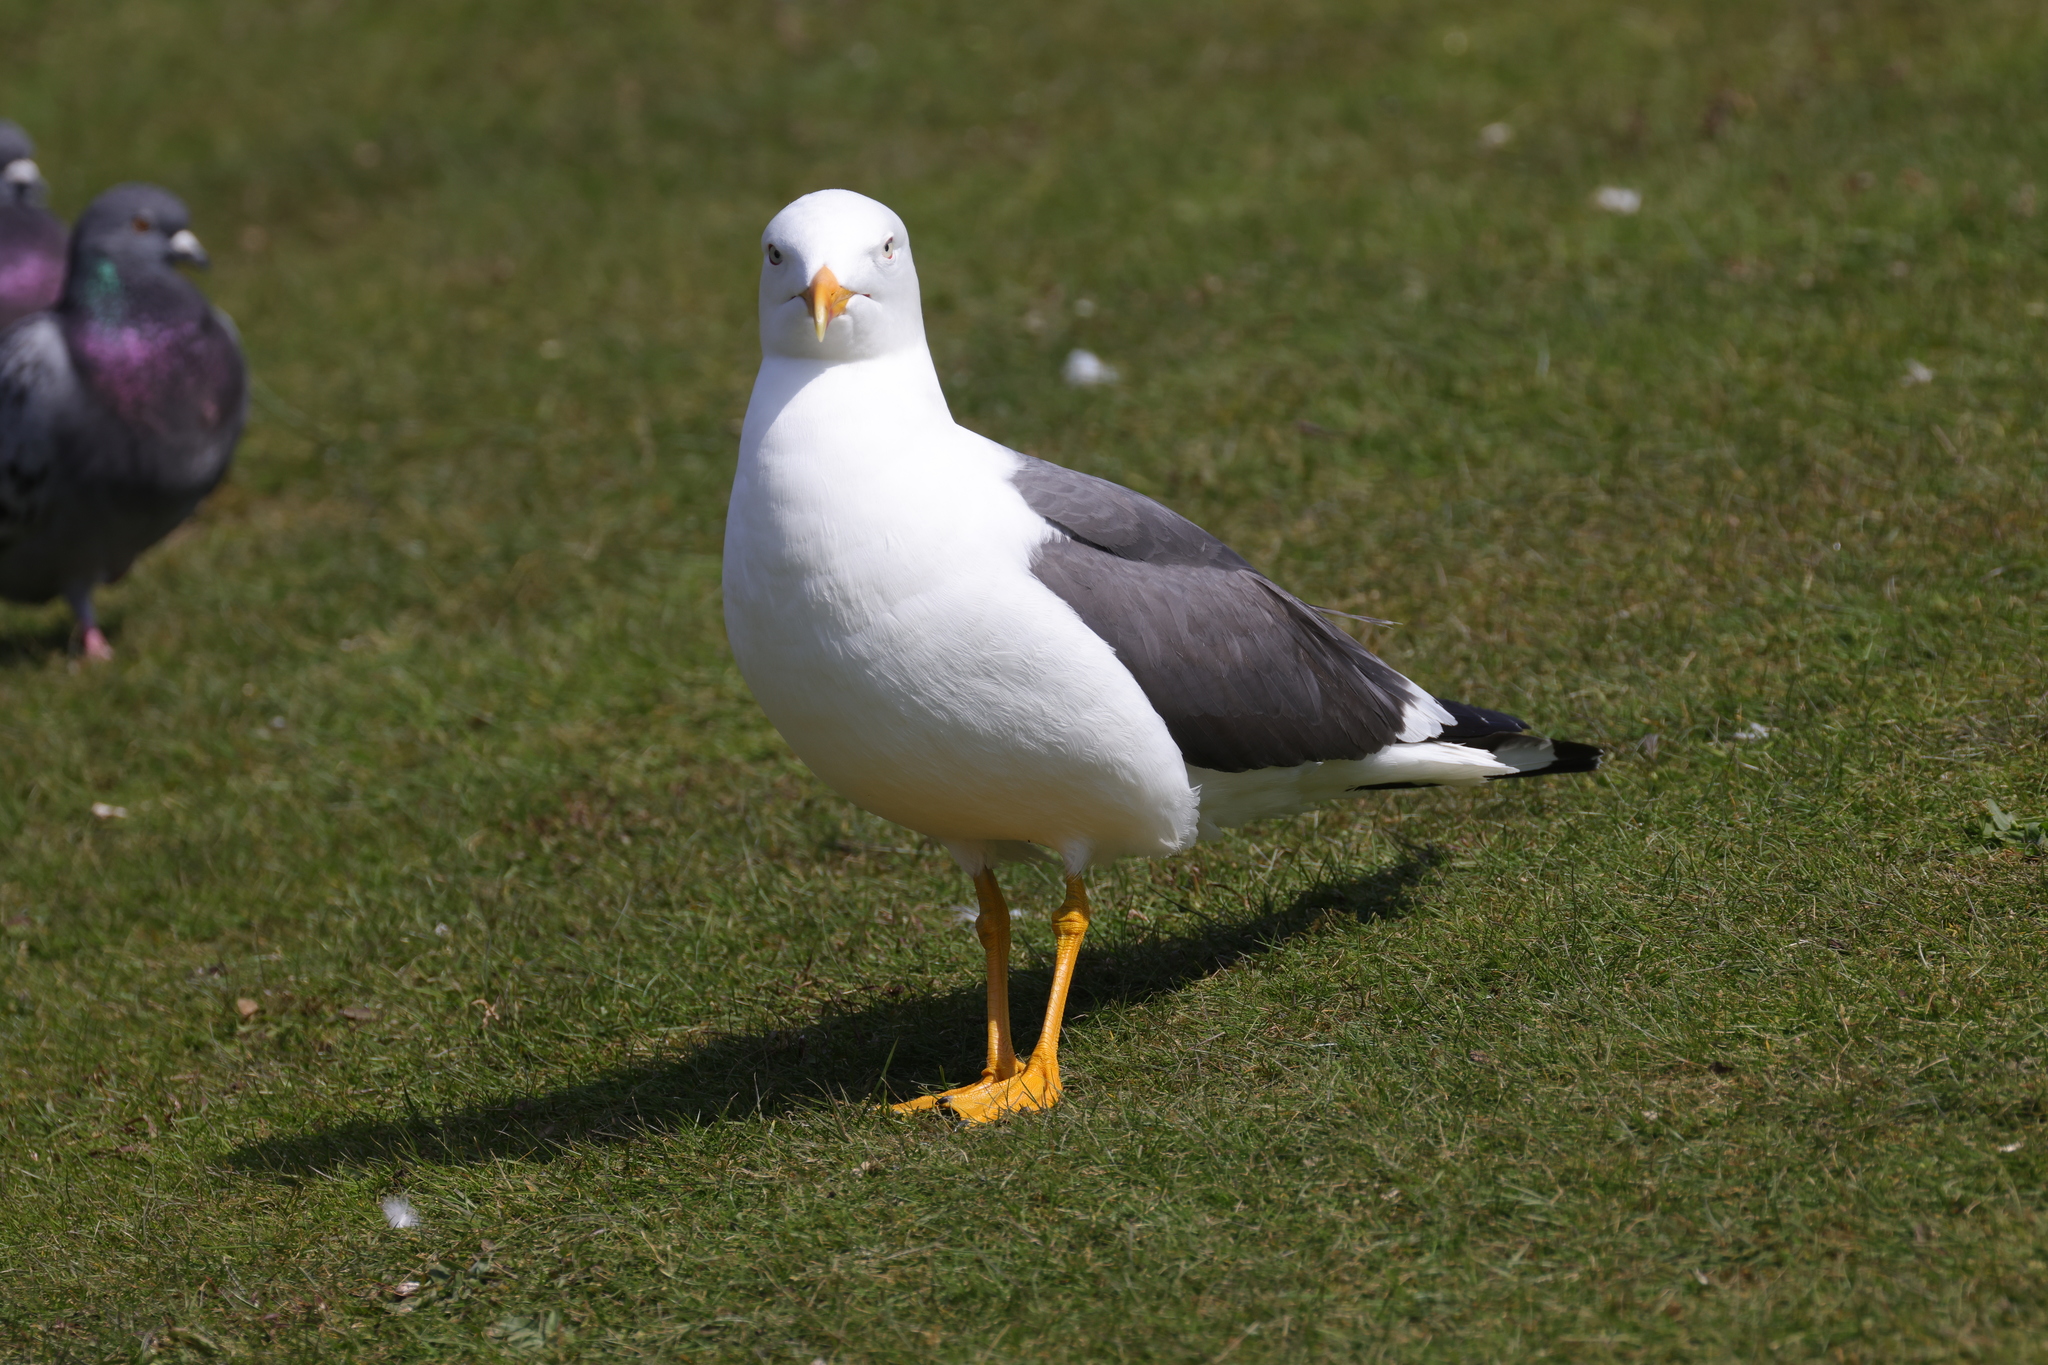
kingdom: Animalia
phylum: Chordata
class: Aves
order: Charadriiformes
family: Laridae
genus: Larus
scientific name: Larus fuscus
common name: Lesser black-backed gull
